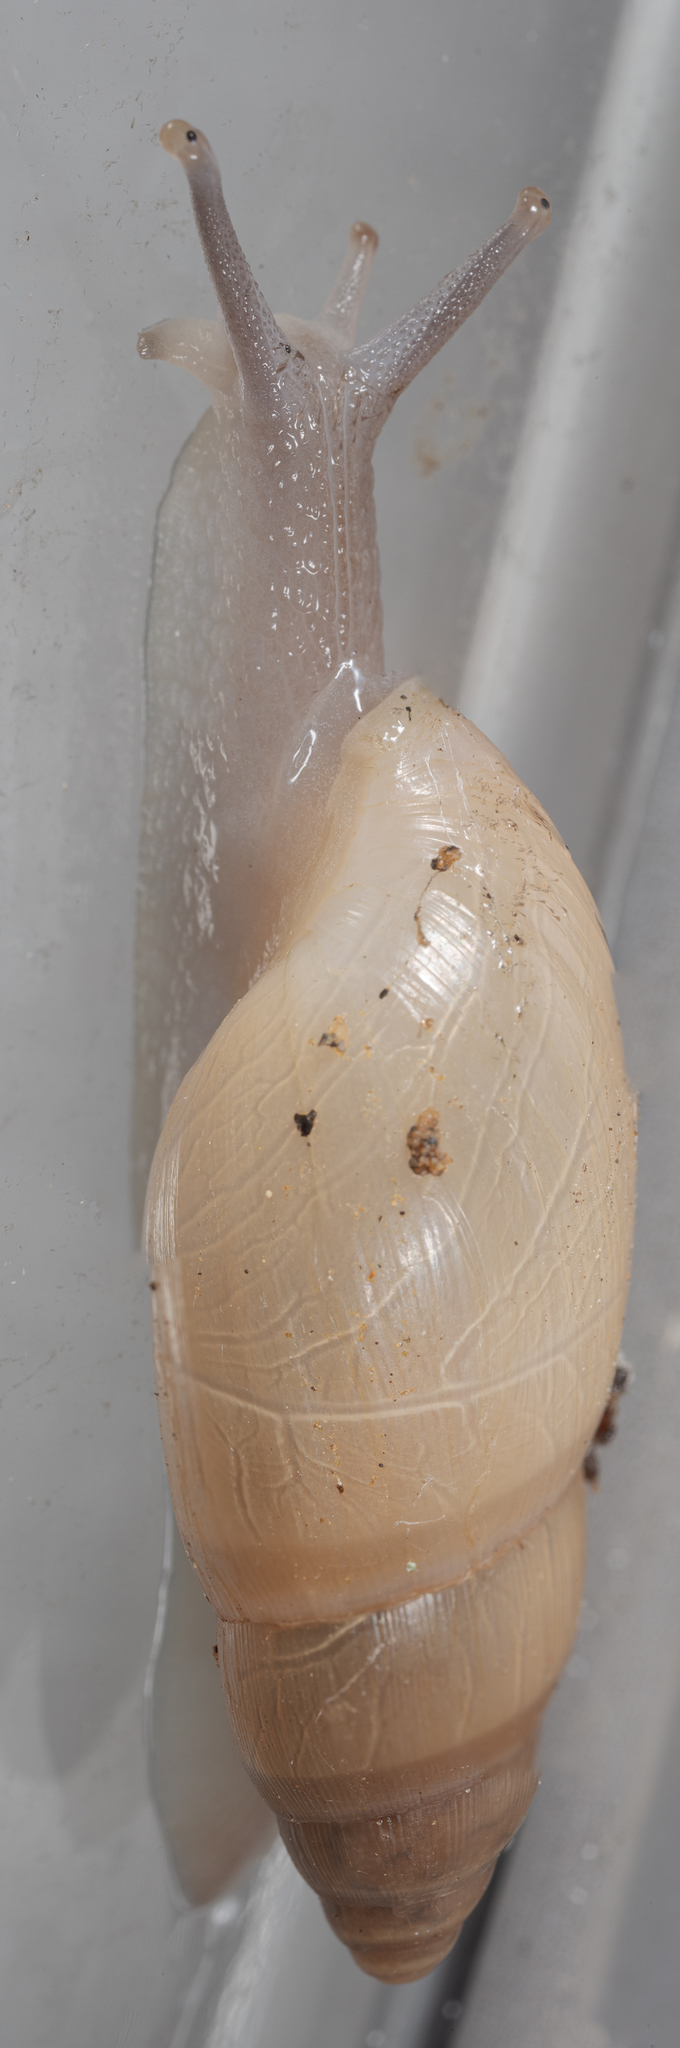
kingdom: Animalia
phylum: Mollusca
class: Gastropoda
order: Stylommatophora
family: Spiraxidae
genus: Euglandina
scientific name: Euglandina singleyana
